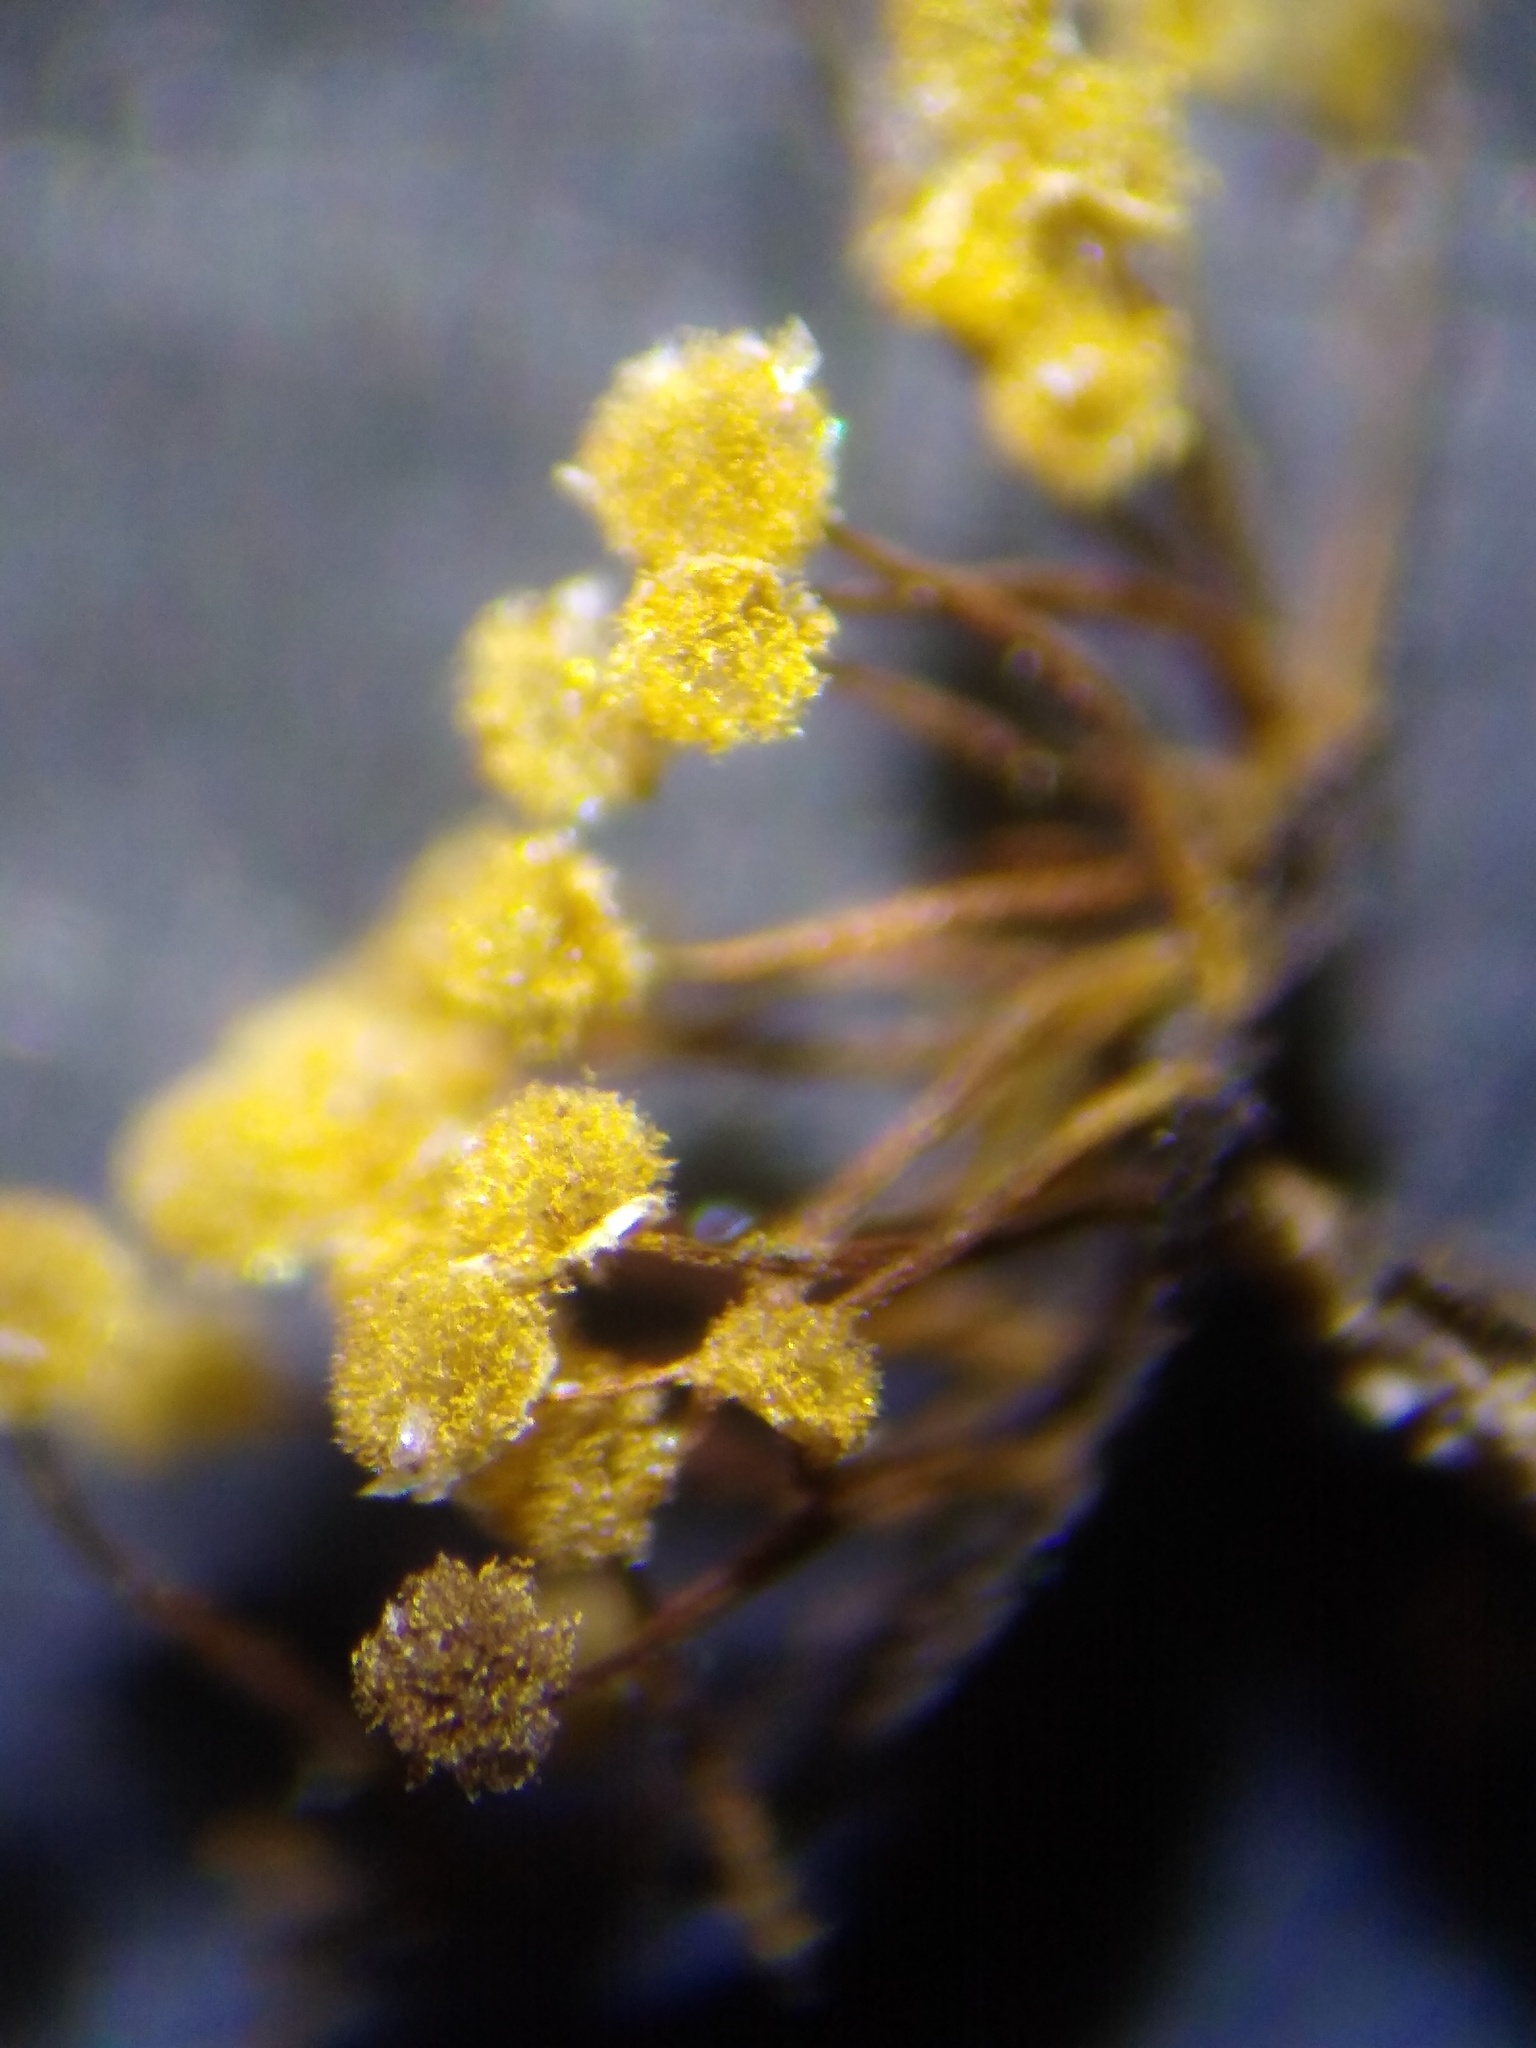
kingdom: Protozoa
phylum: Mycetozoa
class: Myxomycetes
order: Physarales
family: Physaraceae
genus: Physarum
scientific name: Physarum flavicomum
